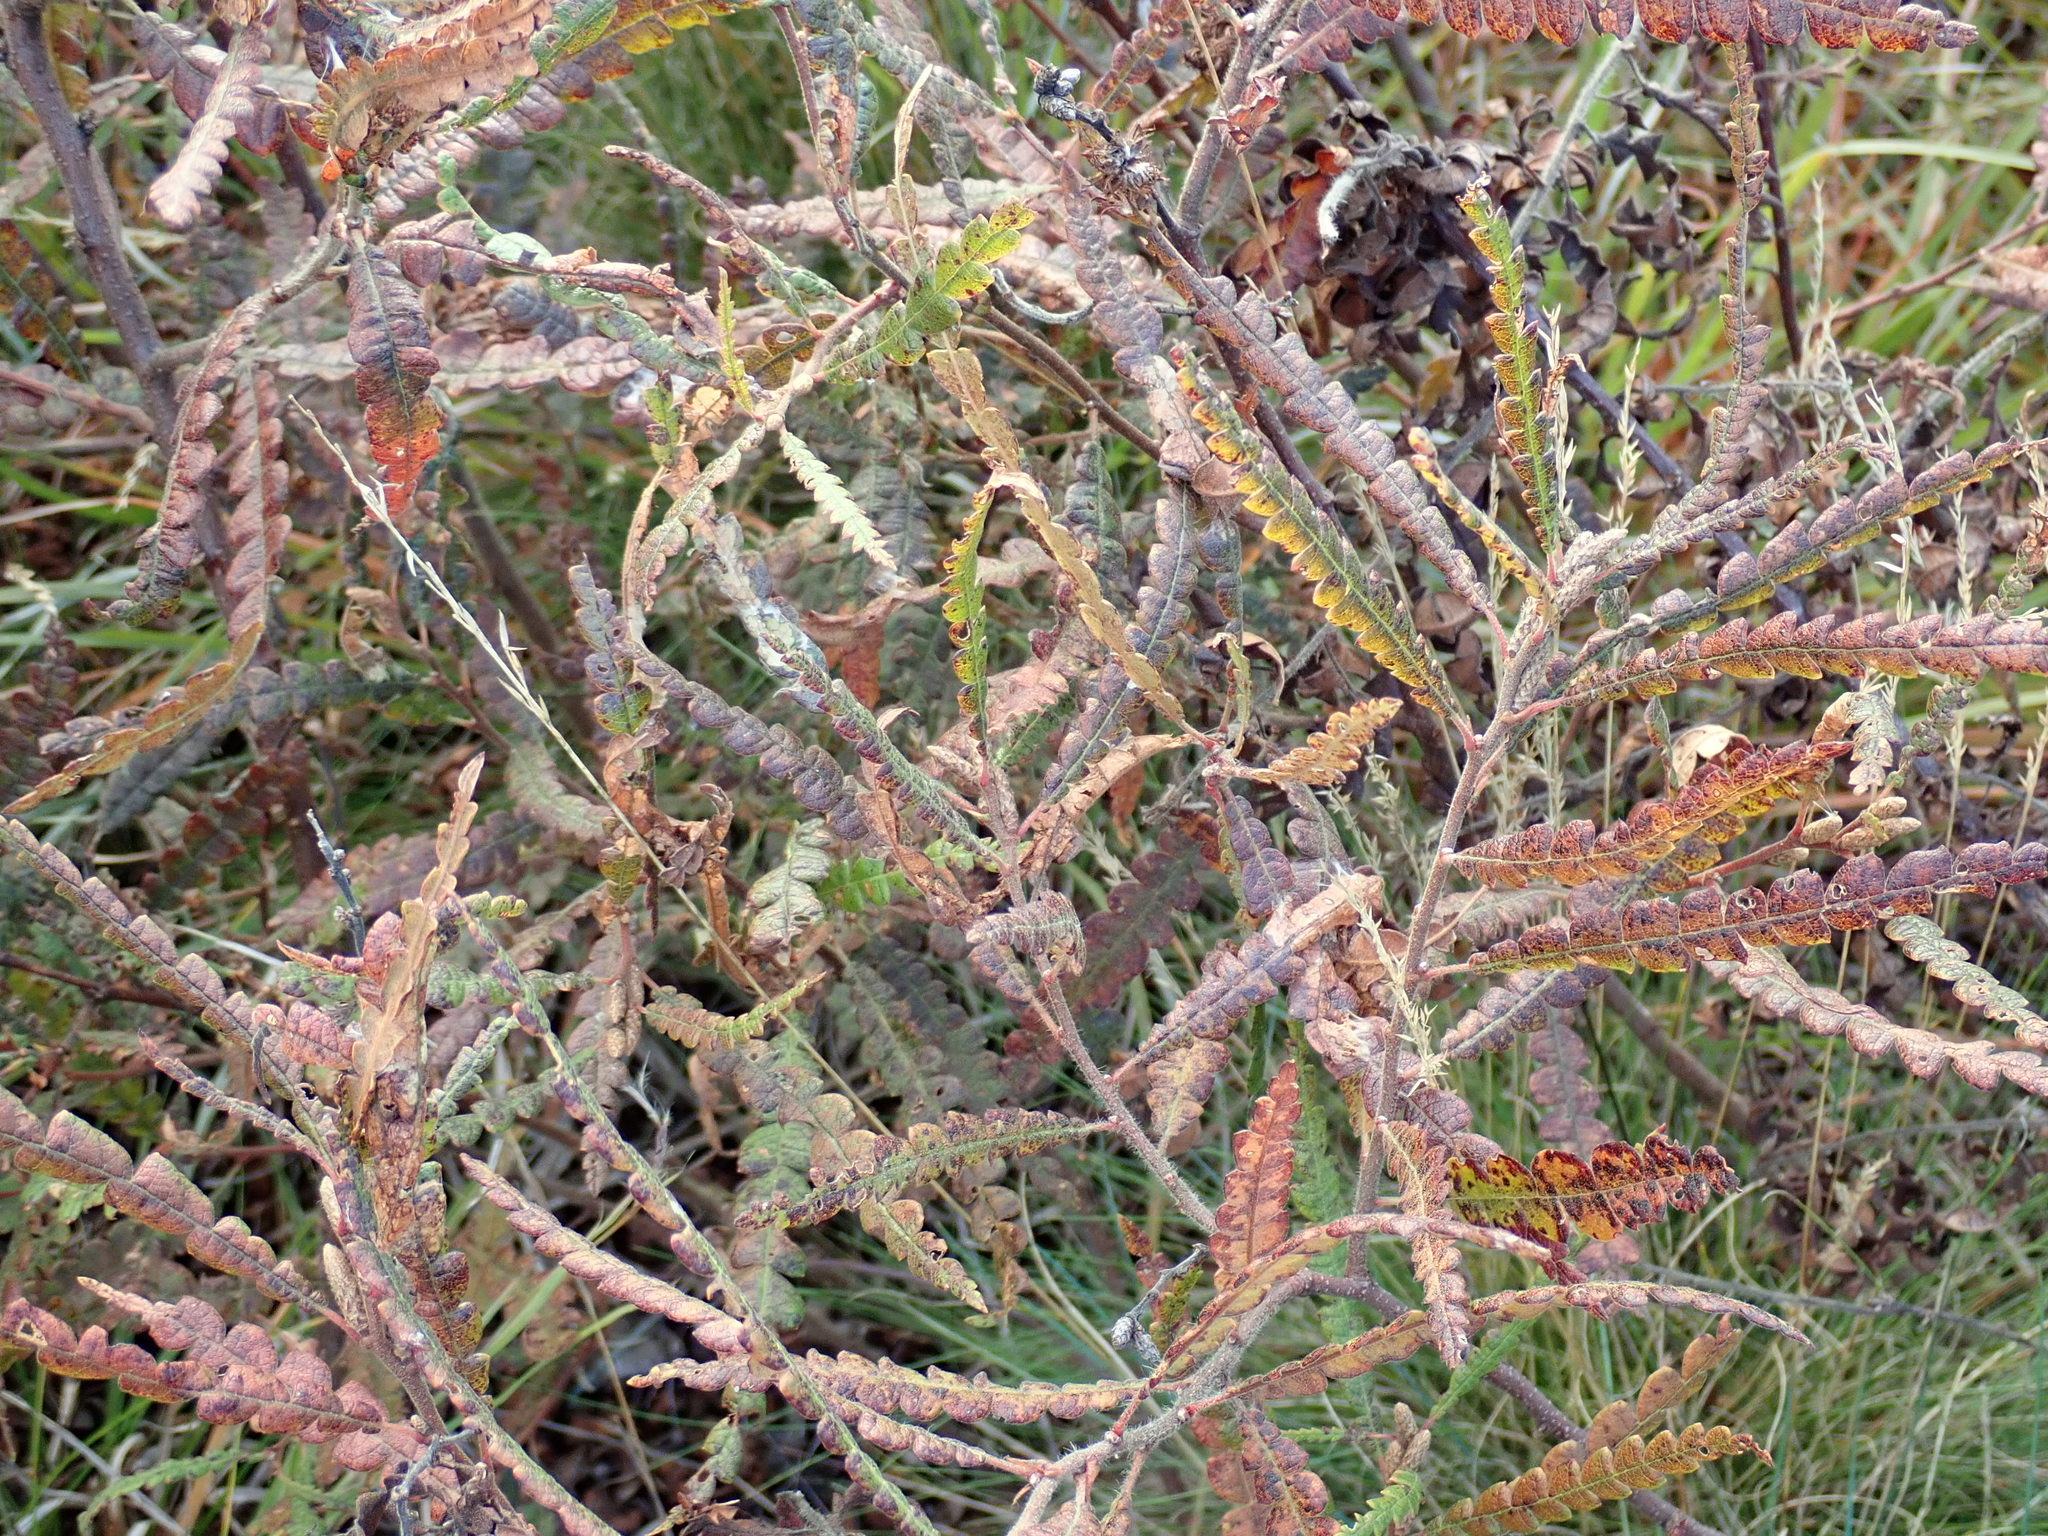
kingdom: Plantae
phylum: Tracheophyta
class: Magnoliopsida
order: Fagales
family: Myricaceae
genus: Comptonia
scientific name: Comptonia peregrina
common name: Sweet-fern
